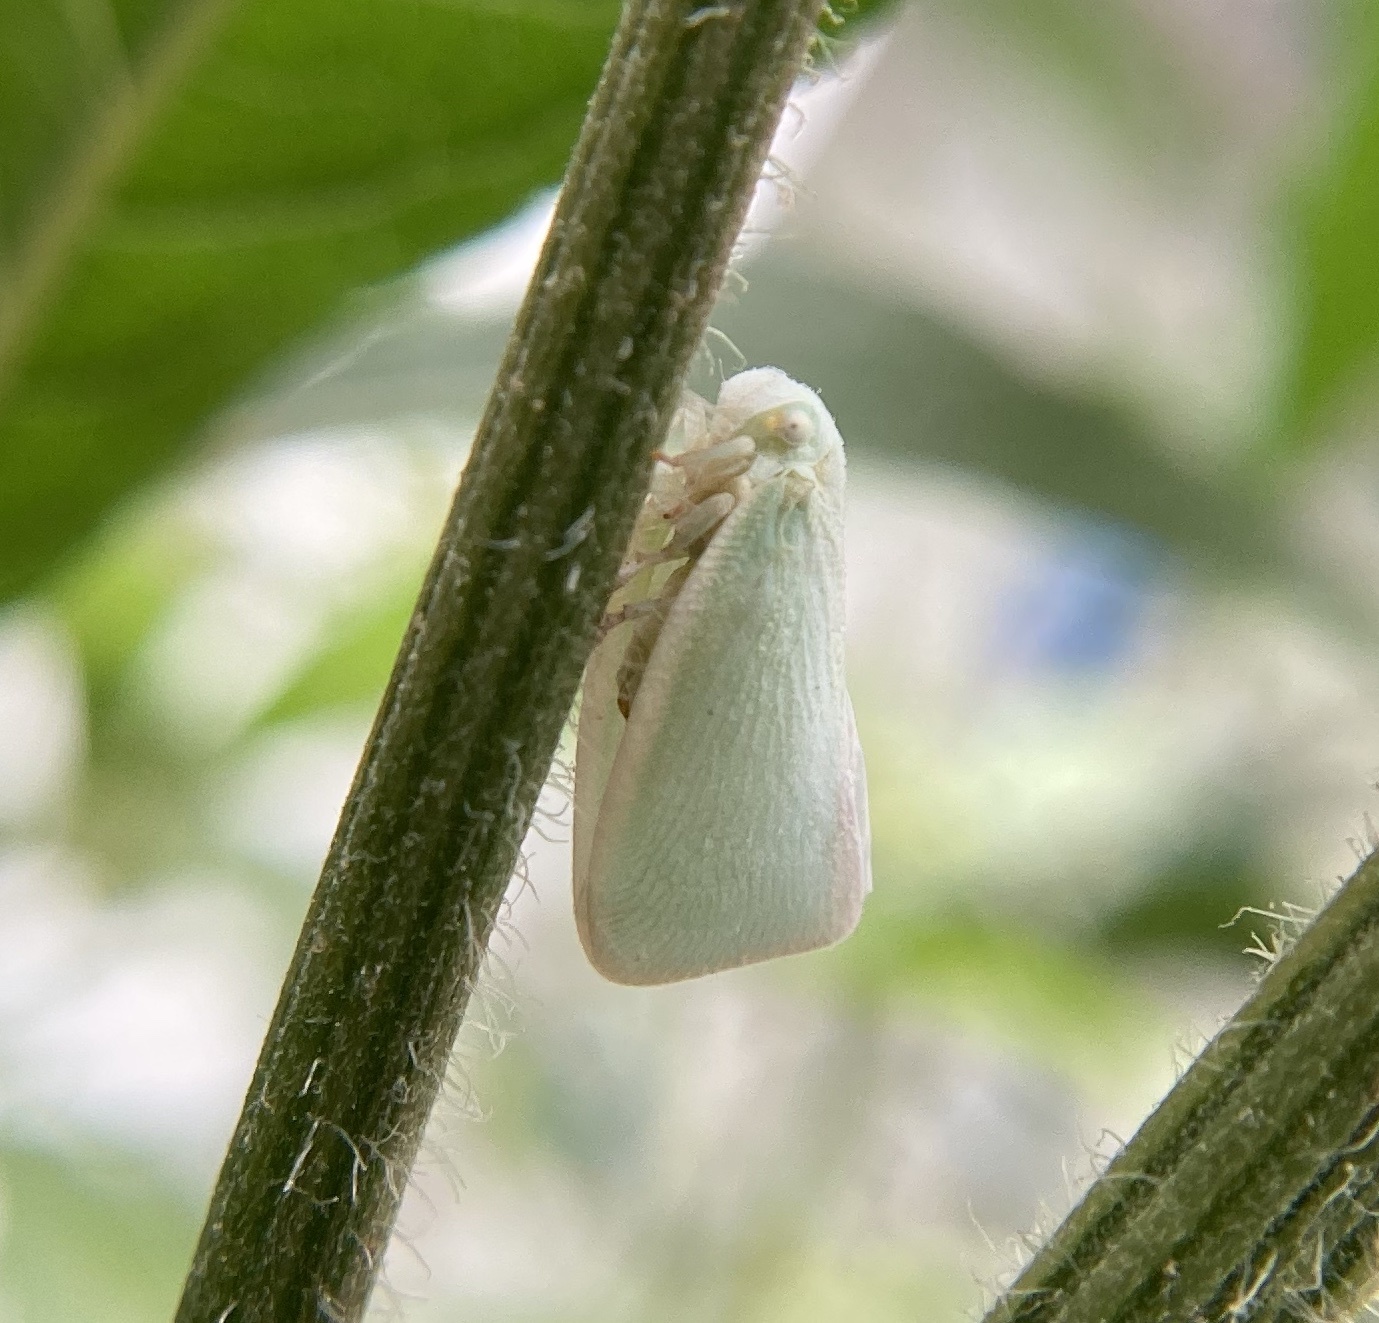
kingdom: Animalia
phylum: Arthropoda
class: Insecta
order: Hemiptera
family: Flatidae
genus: Flatormenis
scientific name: Flatormenis proxima
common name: Northern flatid planthopper
